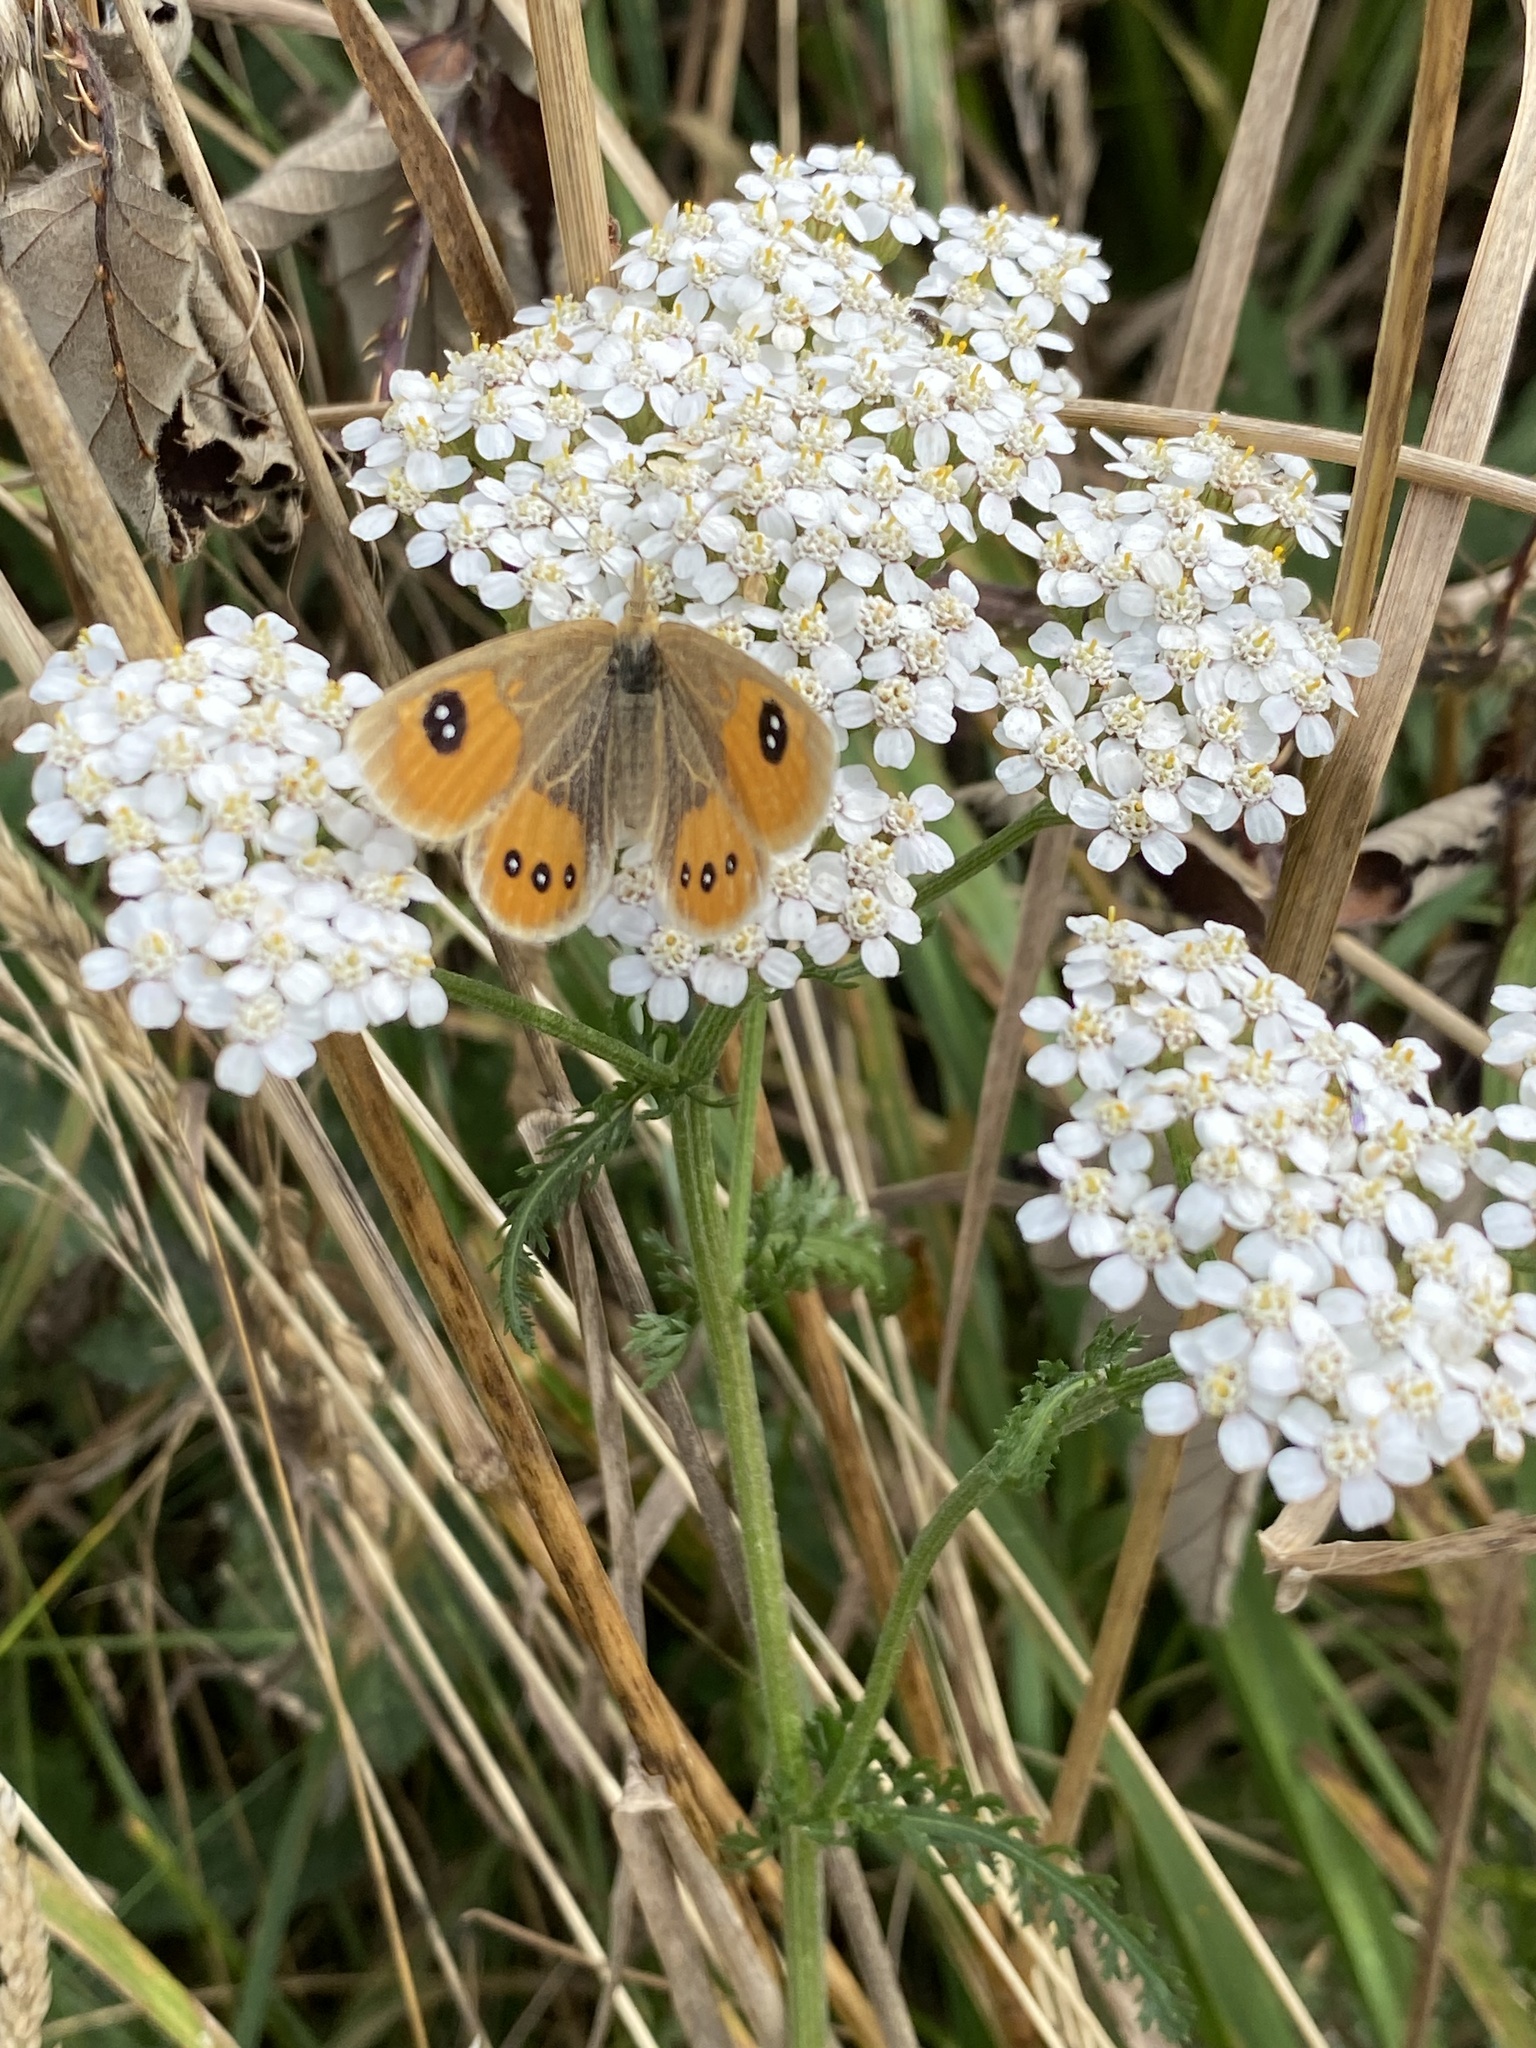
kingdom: Animalia
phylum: Arthropoda
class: Insecta
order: Lepidoptera
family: Nymphalidae
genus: Argyrophenga
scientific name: Argyrophenga antipodum
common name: Common tussock butterfly
